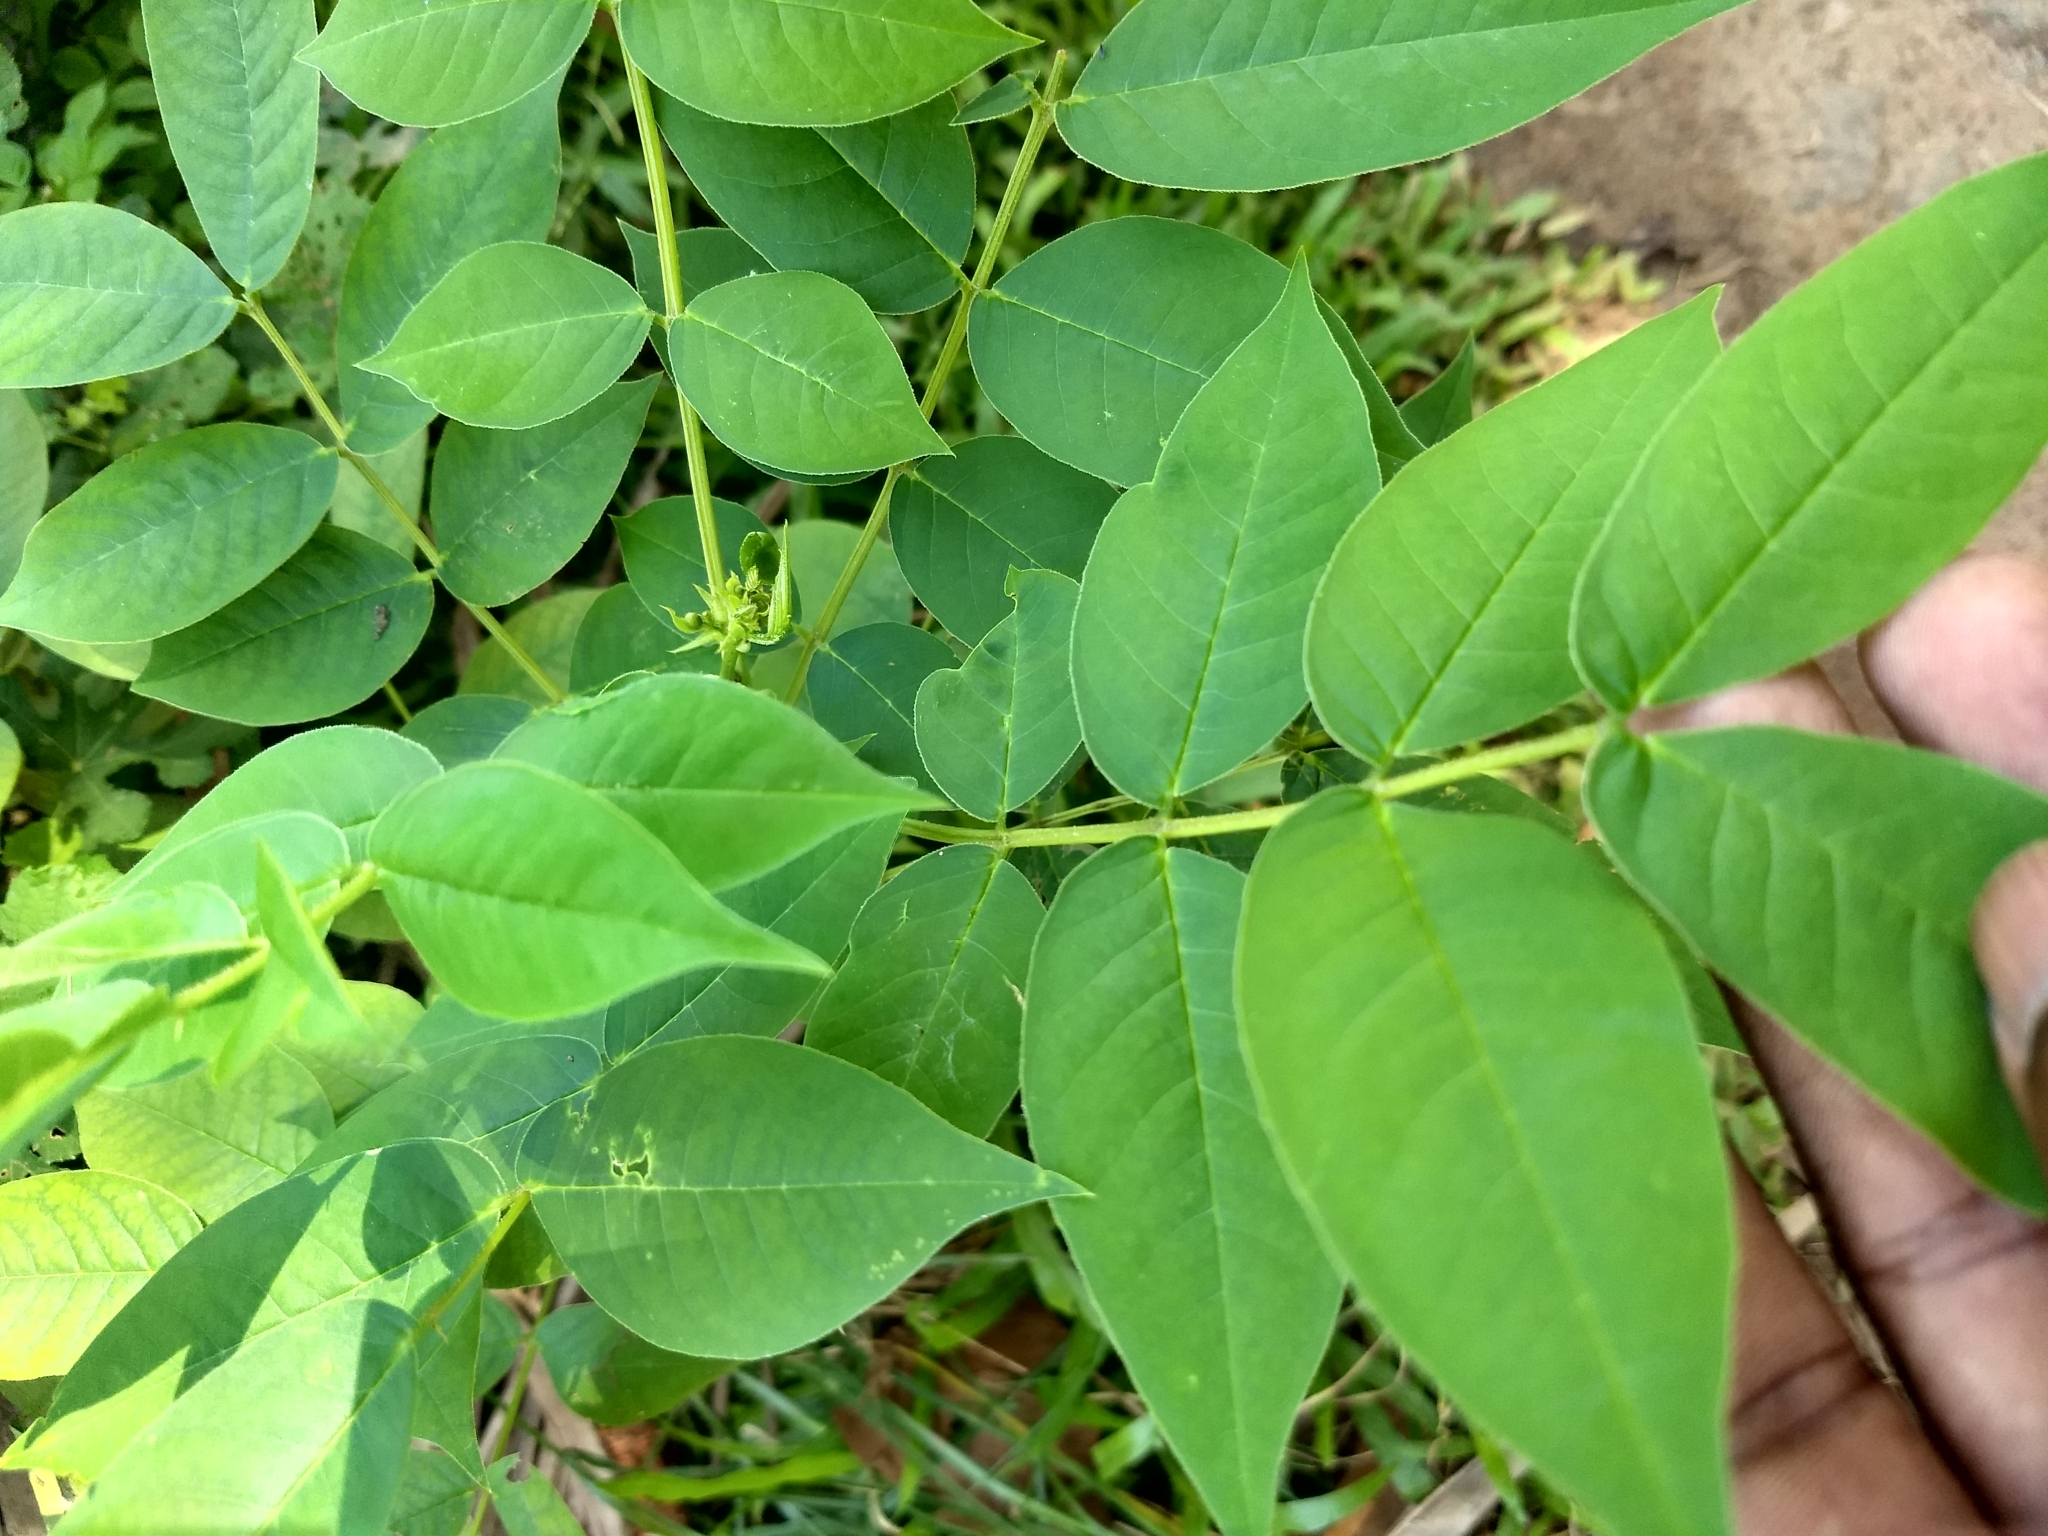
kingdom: Plantae
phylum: Tracheophyta
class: Magnoliopsida
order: Fabales
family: Fabaceae
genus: Senna
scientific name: Senna occidentalis
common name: Septicweed
